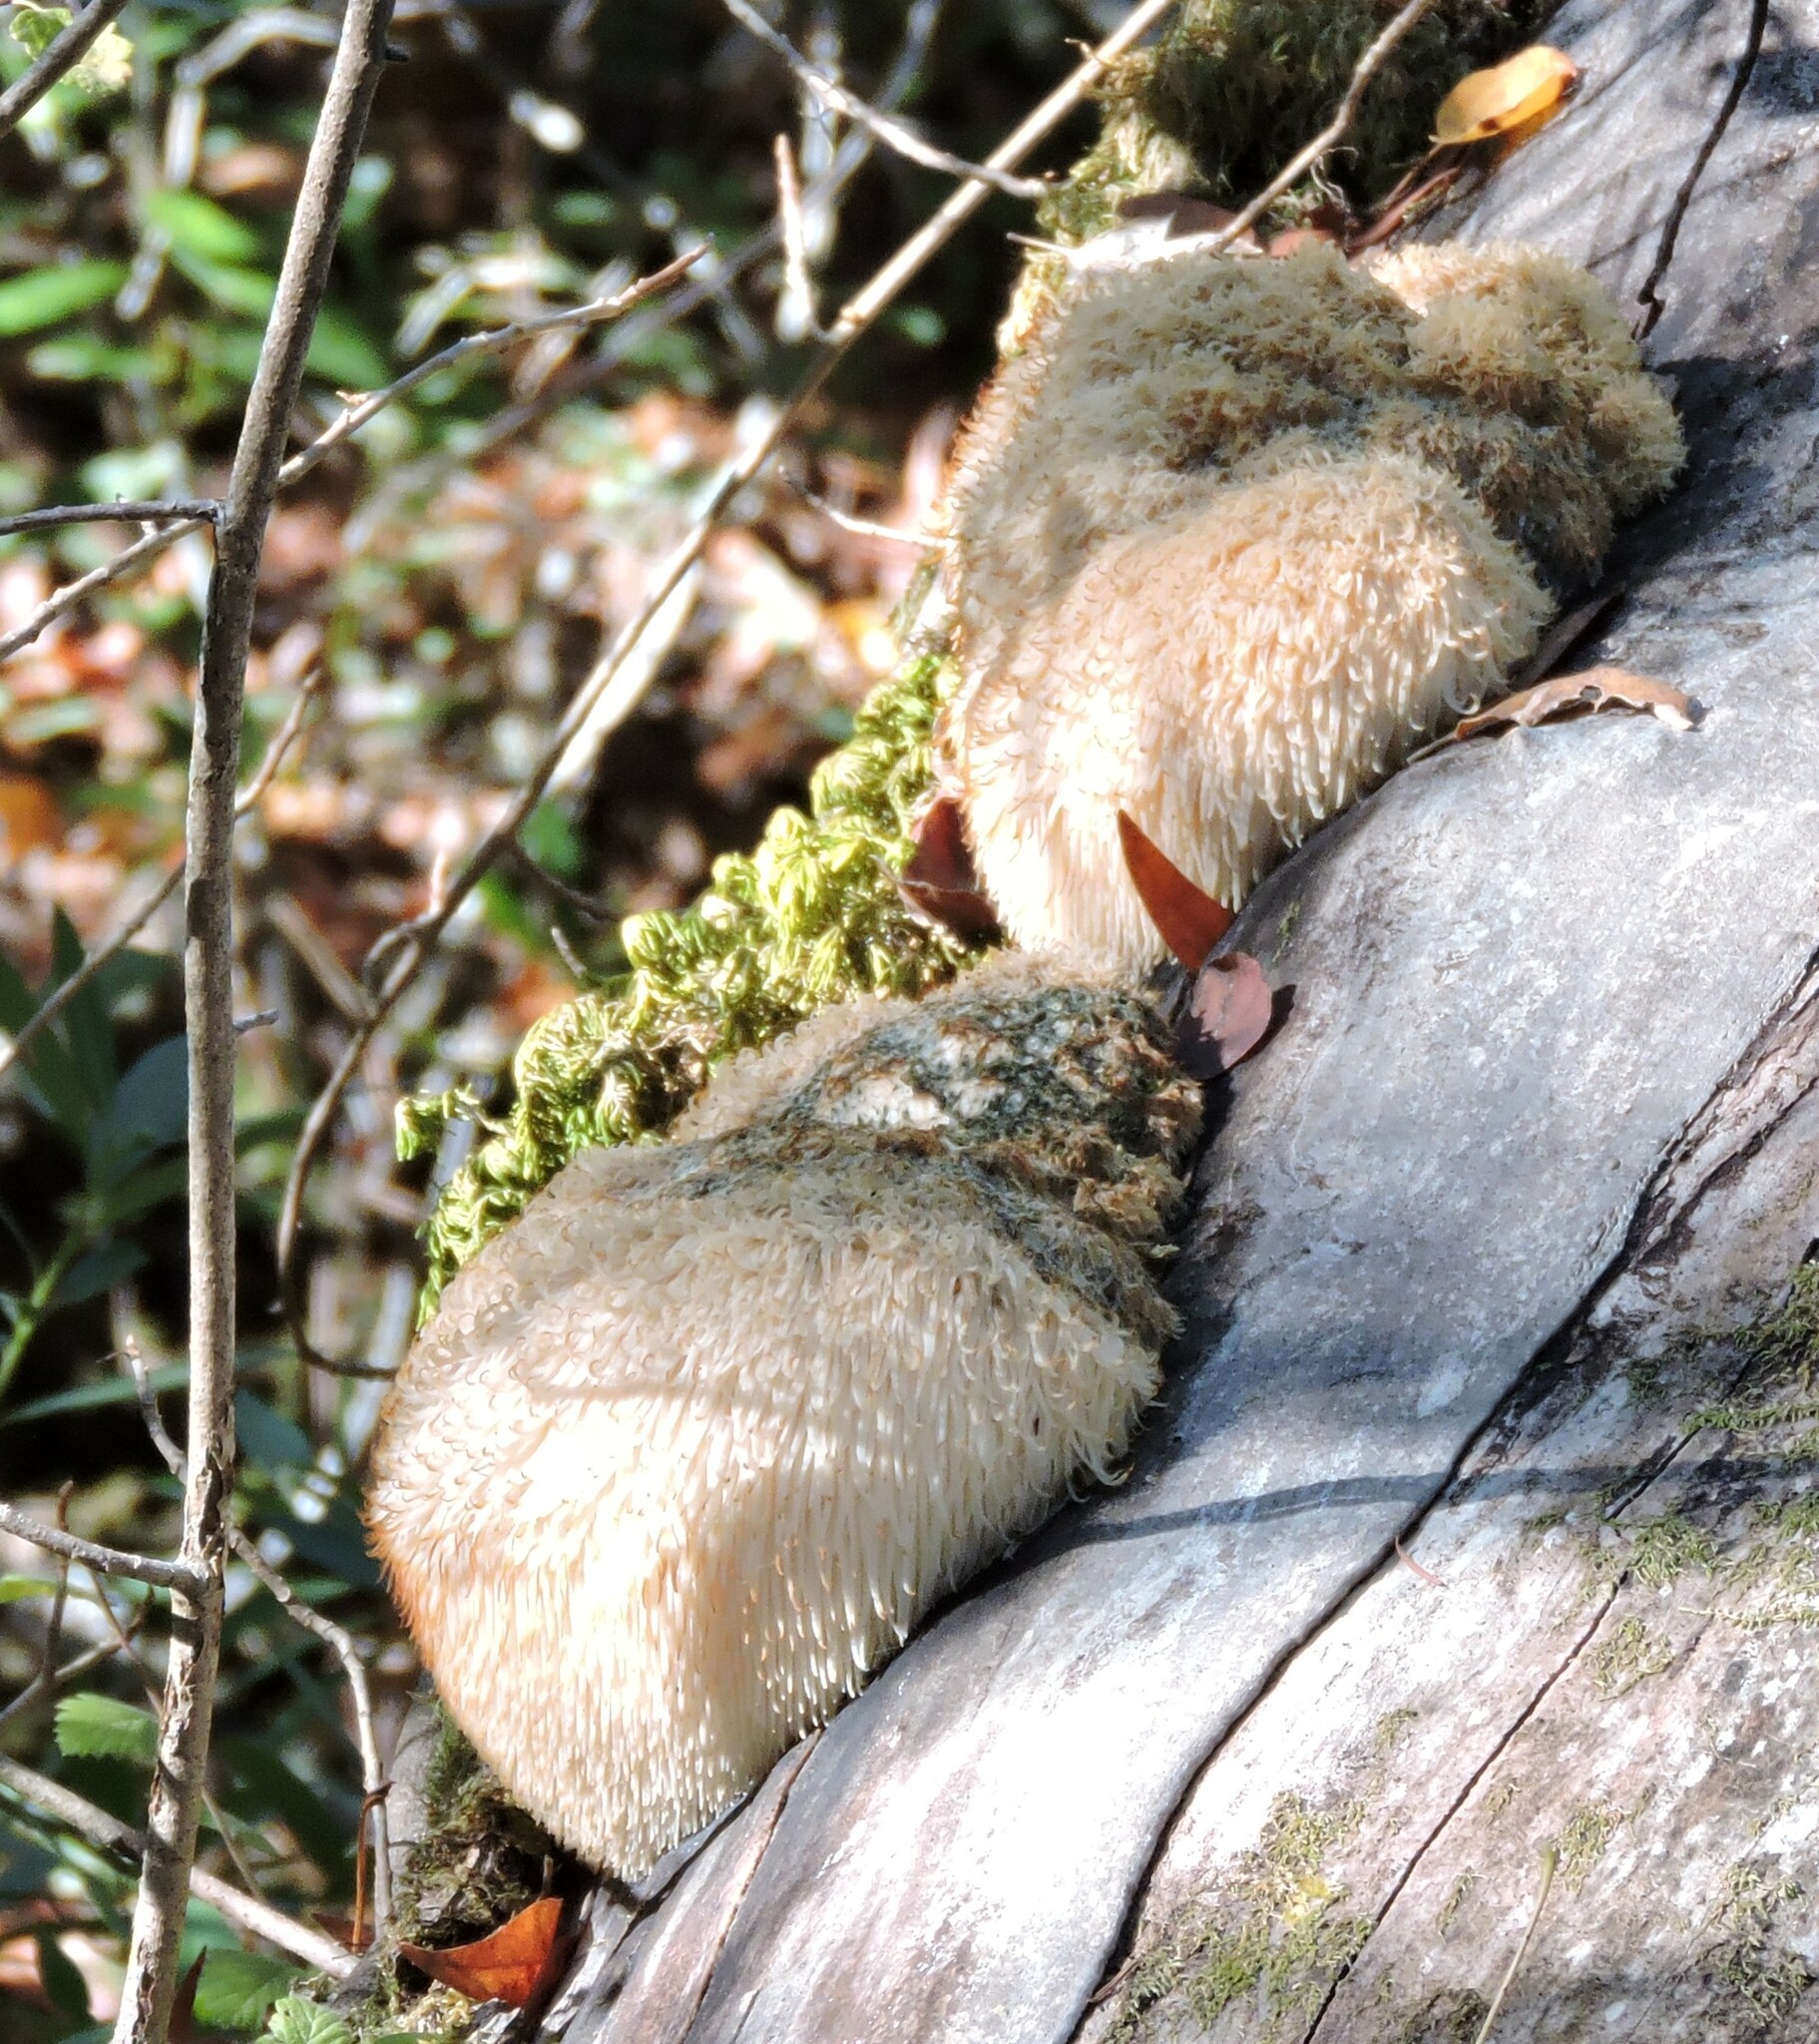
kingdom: Fungi
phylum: Basidiomycota
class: Agaricomycetes
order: Russulales
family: Hericiaceae
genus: Hericium
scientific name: Hericium erinaceus
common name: Bearded tooth
